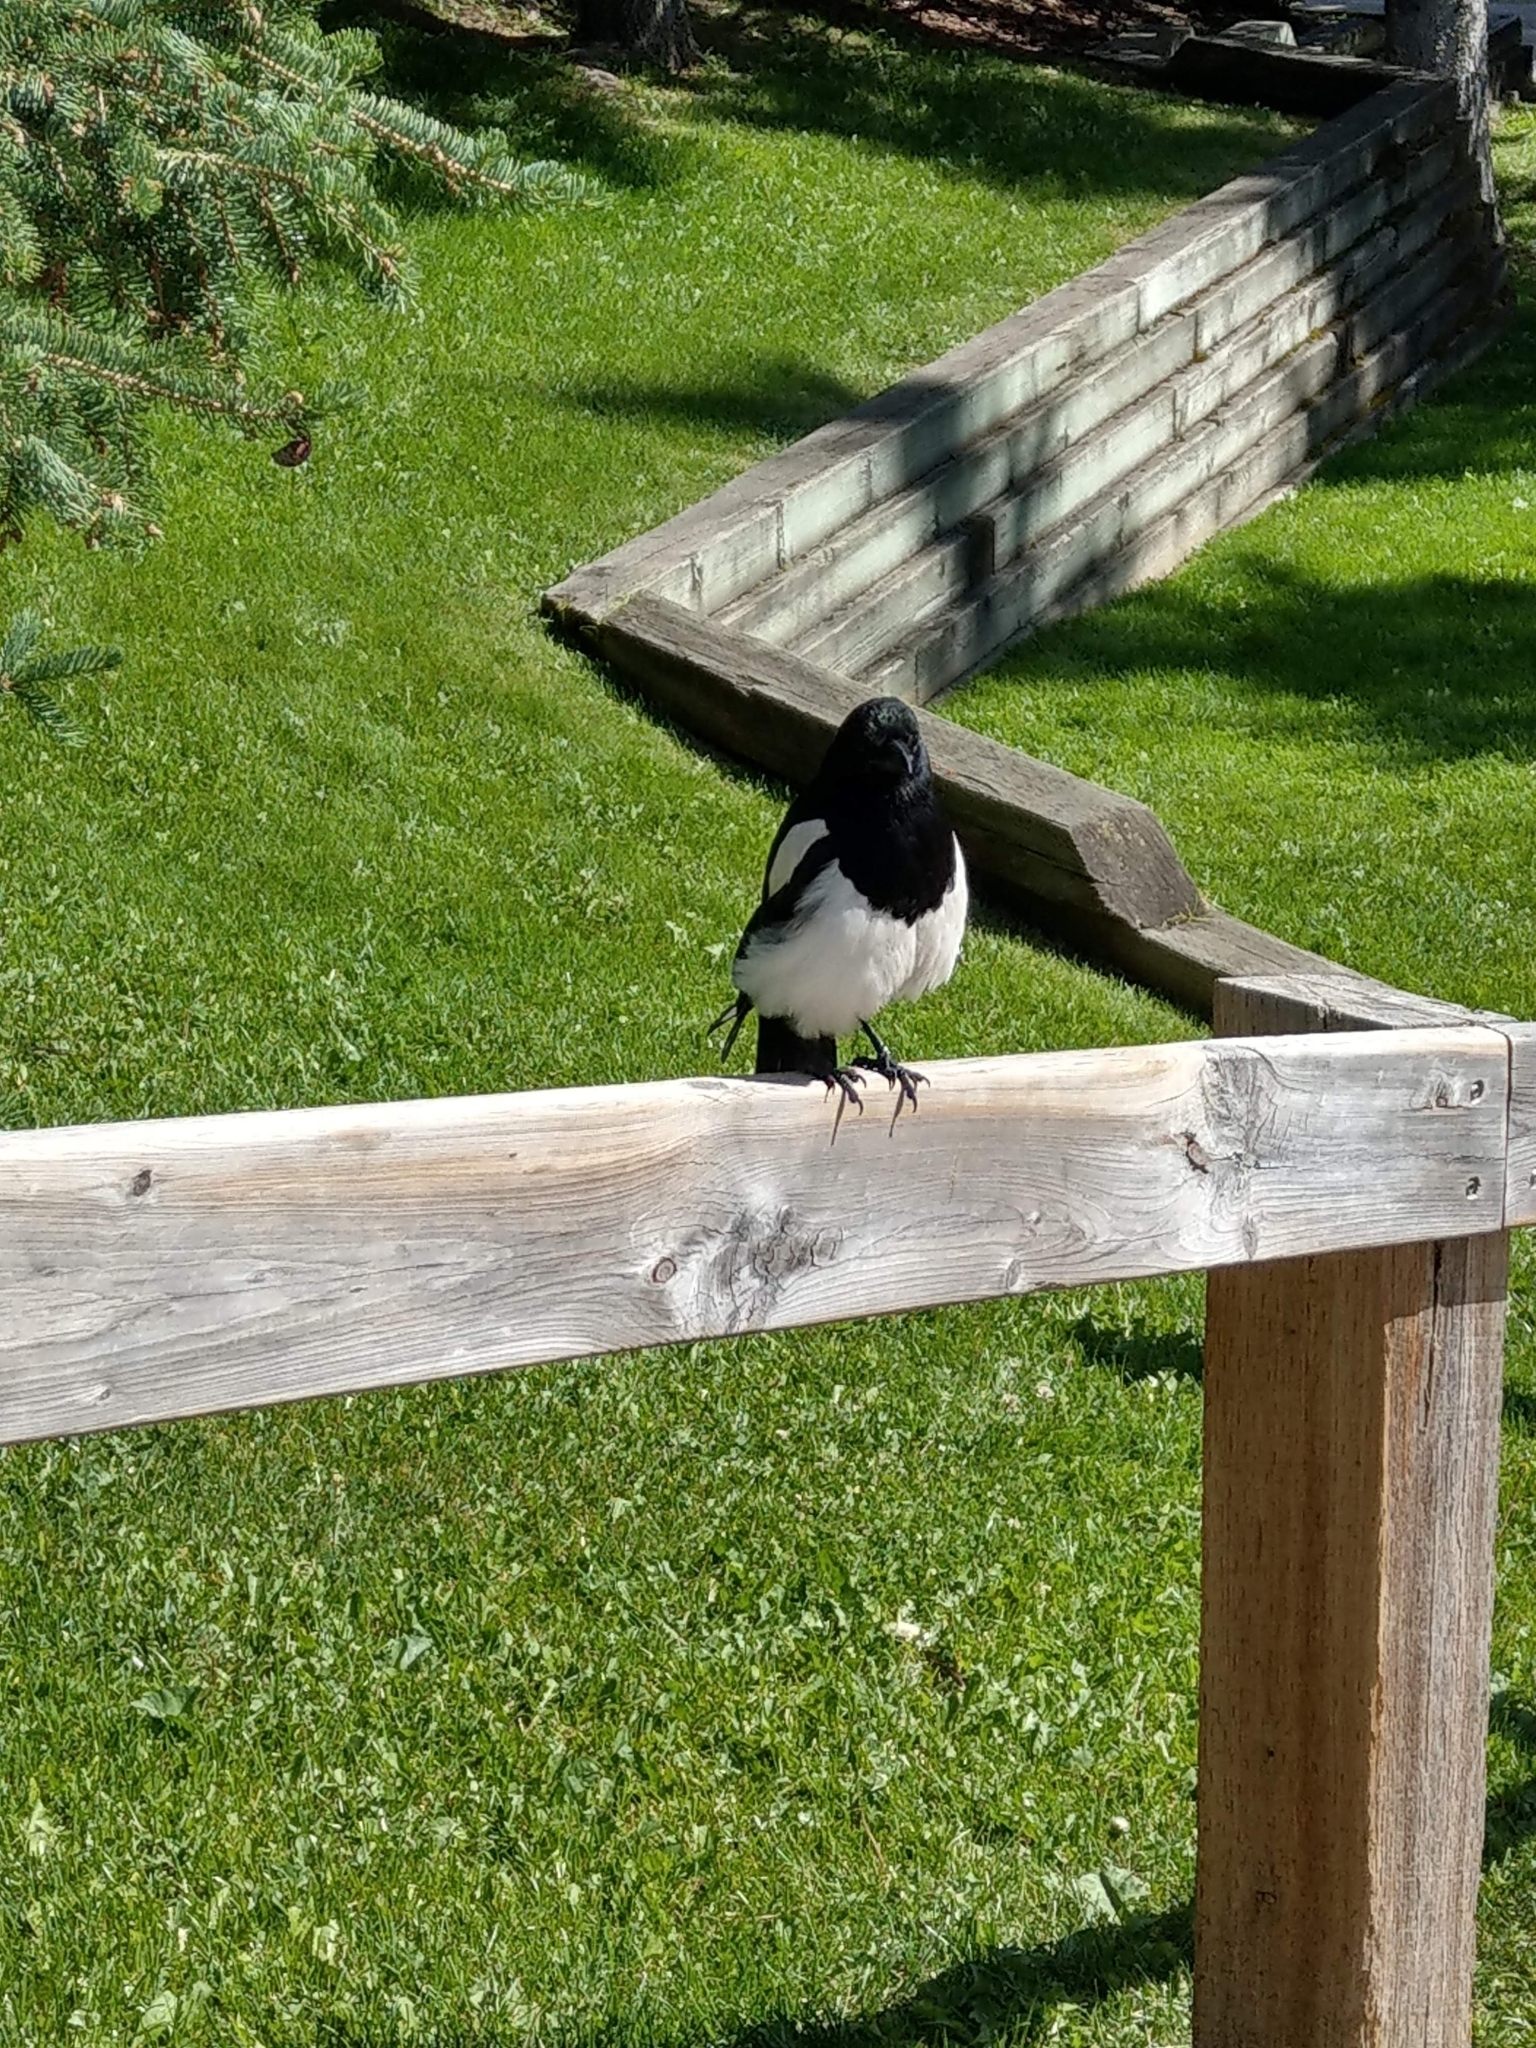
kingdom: Animalia
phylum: Chordata
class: Aves
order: Passeriformes
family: Corvidae
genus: Pica
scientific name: Pica hudsonia
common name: Black-billed magpie
